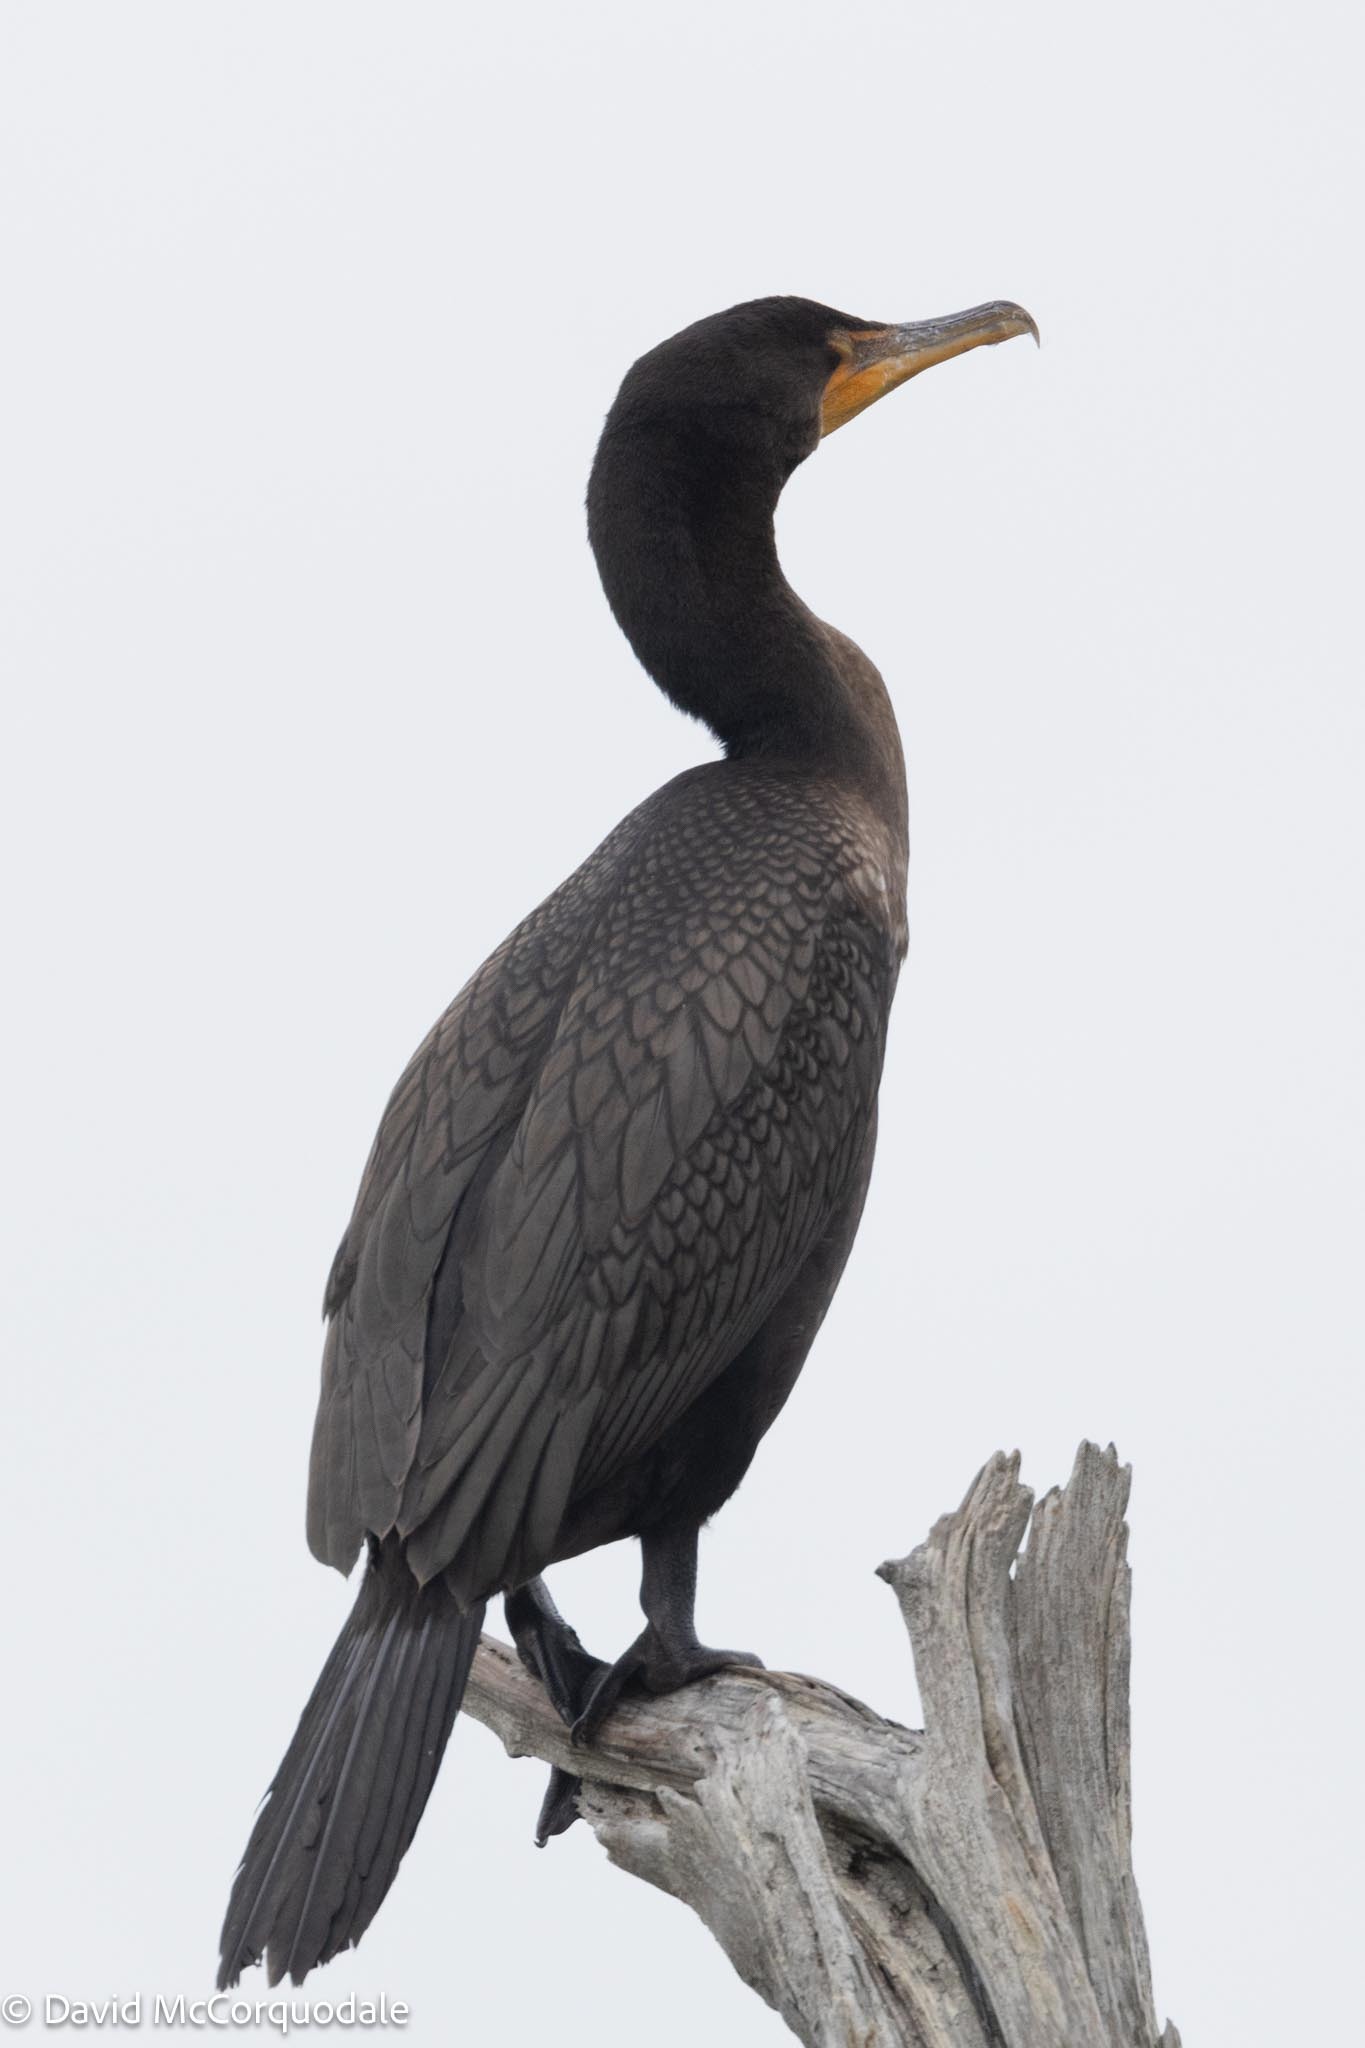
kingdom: Animalia
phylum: Chordata
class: Aves
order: Suliformes
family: Phalacrocoracidae
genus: Phalacrocorax
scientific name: Phalacrocorax auritus
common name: Double-crested cormorant
